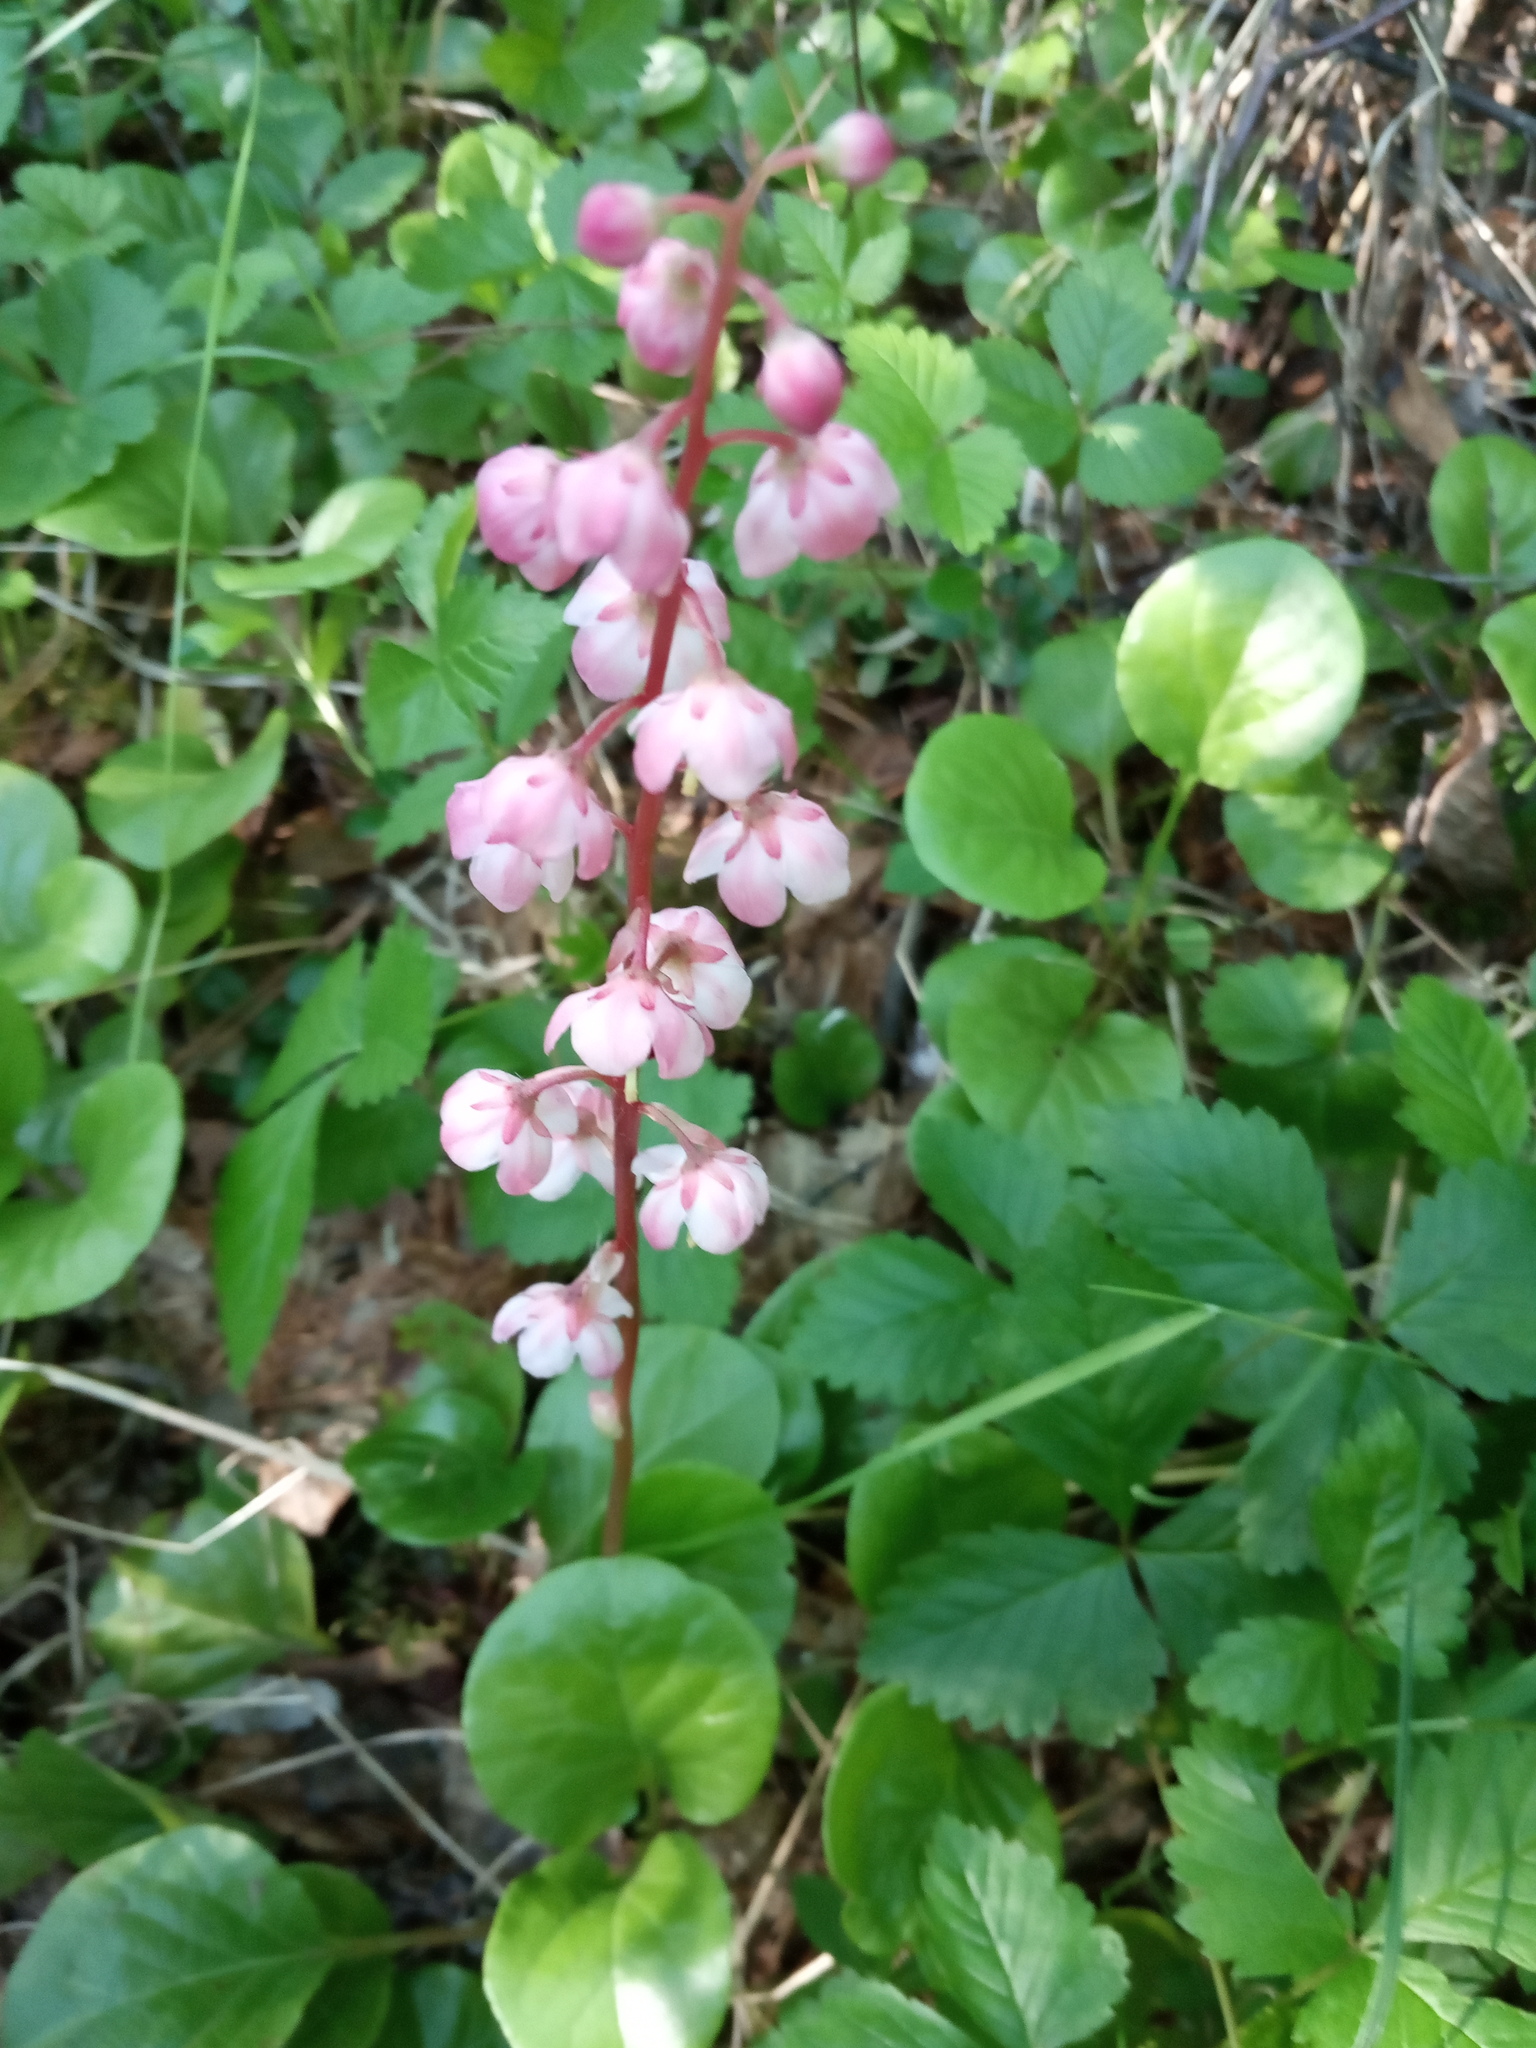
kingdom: Plantae
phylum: Tracheophyta
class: Magnoliopsida
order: Ericales
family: Ericaceae
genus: Pyrola
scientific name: Pyrola asarifolia
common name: Bog wintergreen
